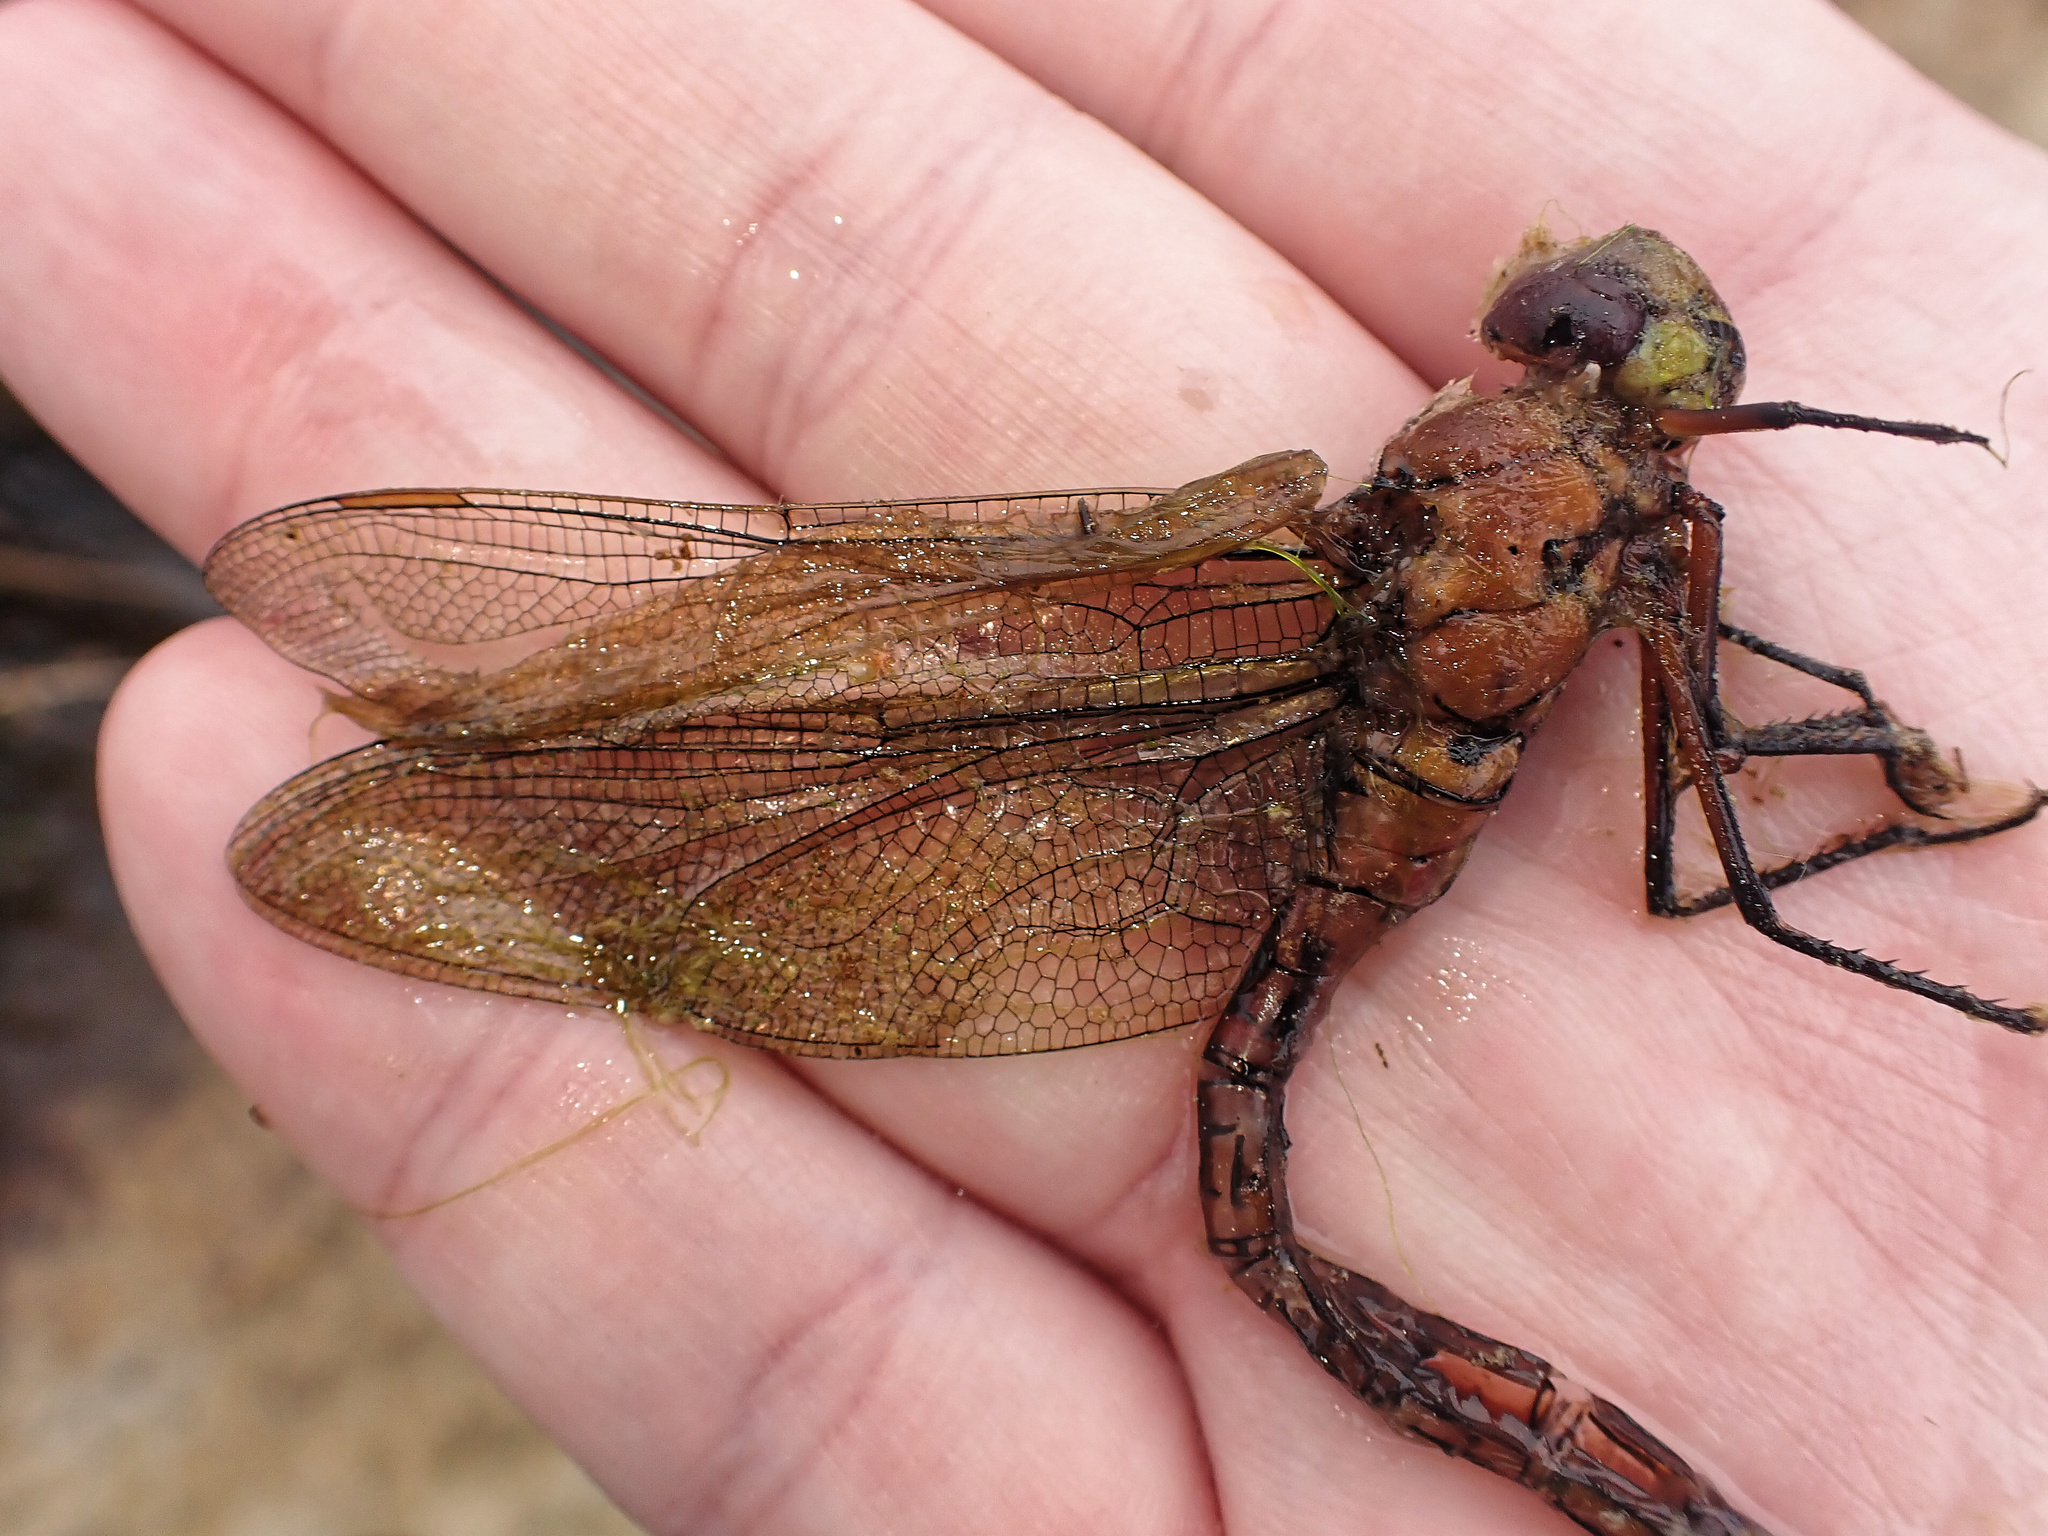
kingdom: Animalia
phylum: Arthropoda
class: Insecta
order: Odonata
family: Aeshnidae
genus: Anax
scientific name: Anax imperator
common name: Emperor dragonfly
